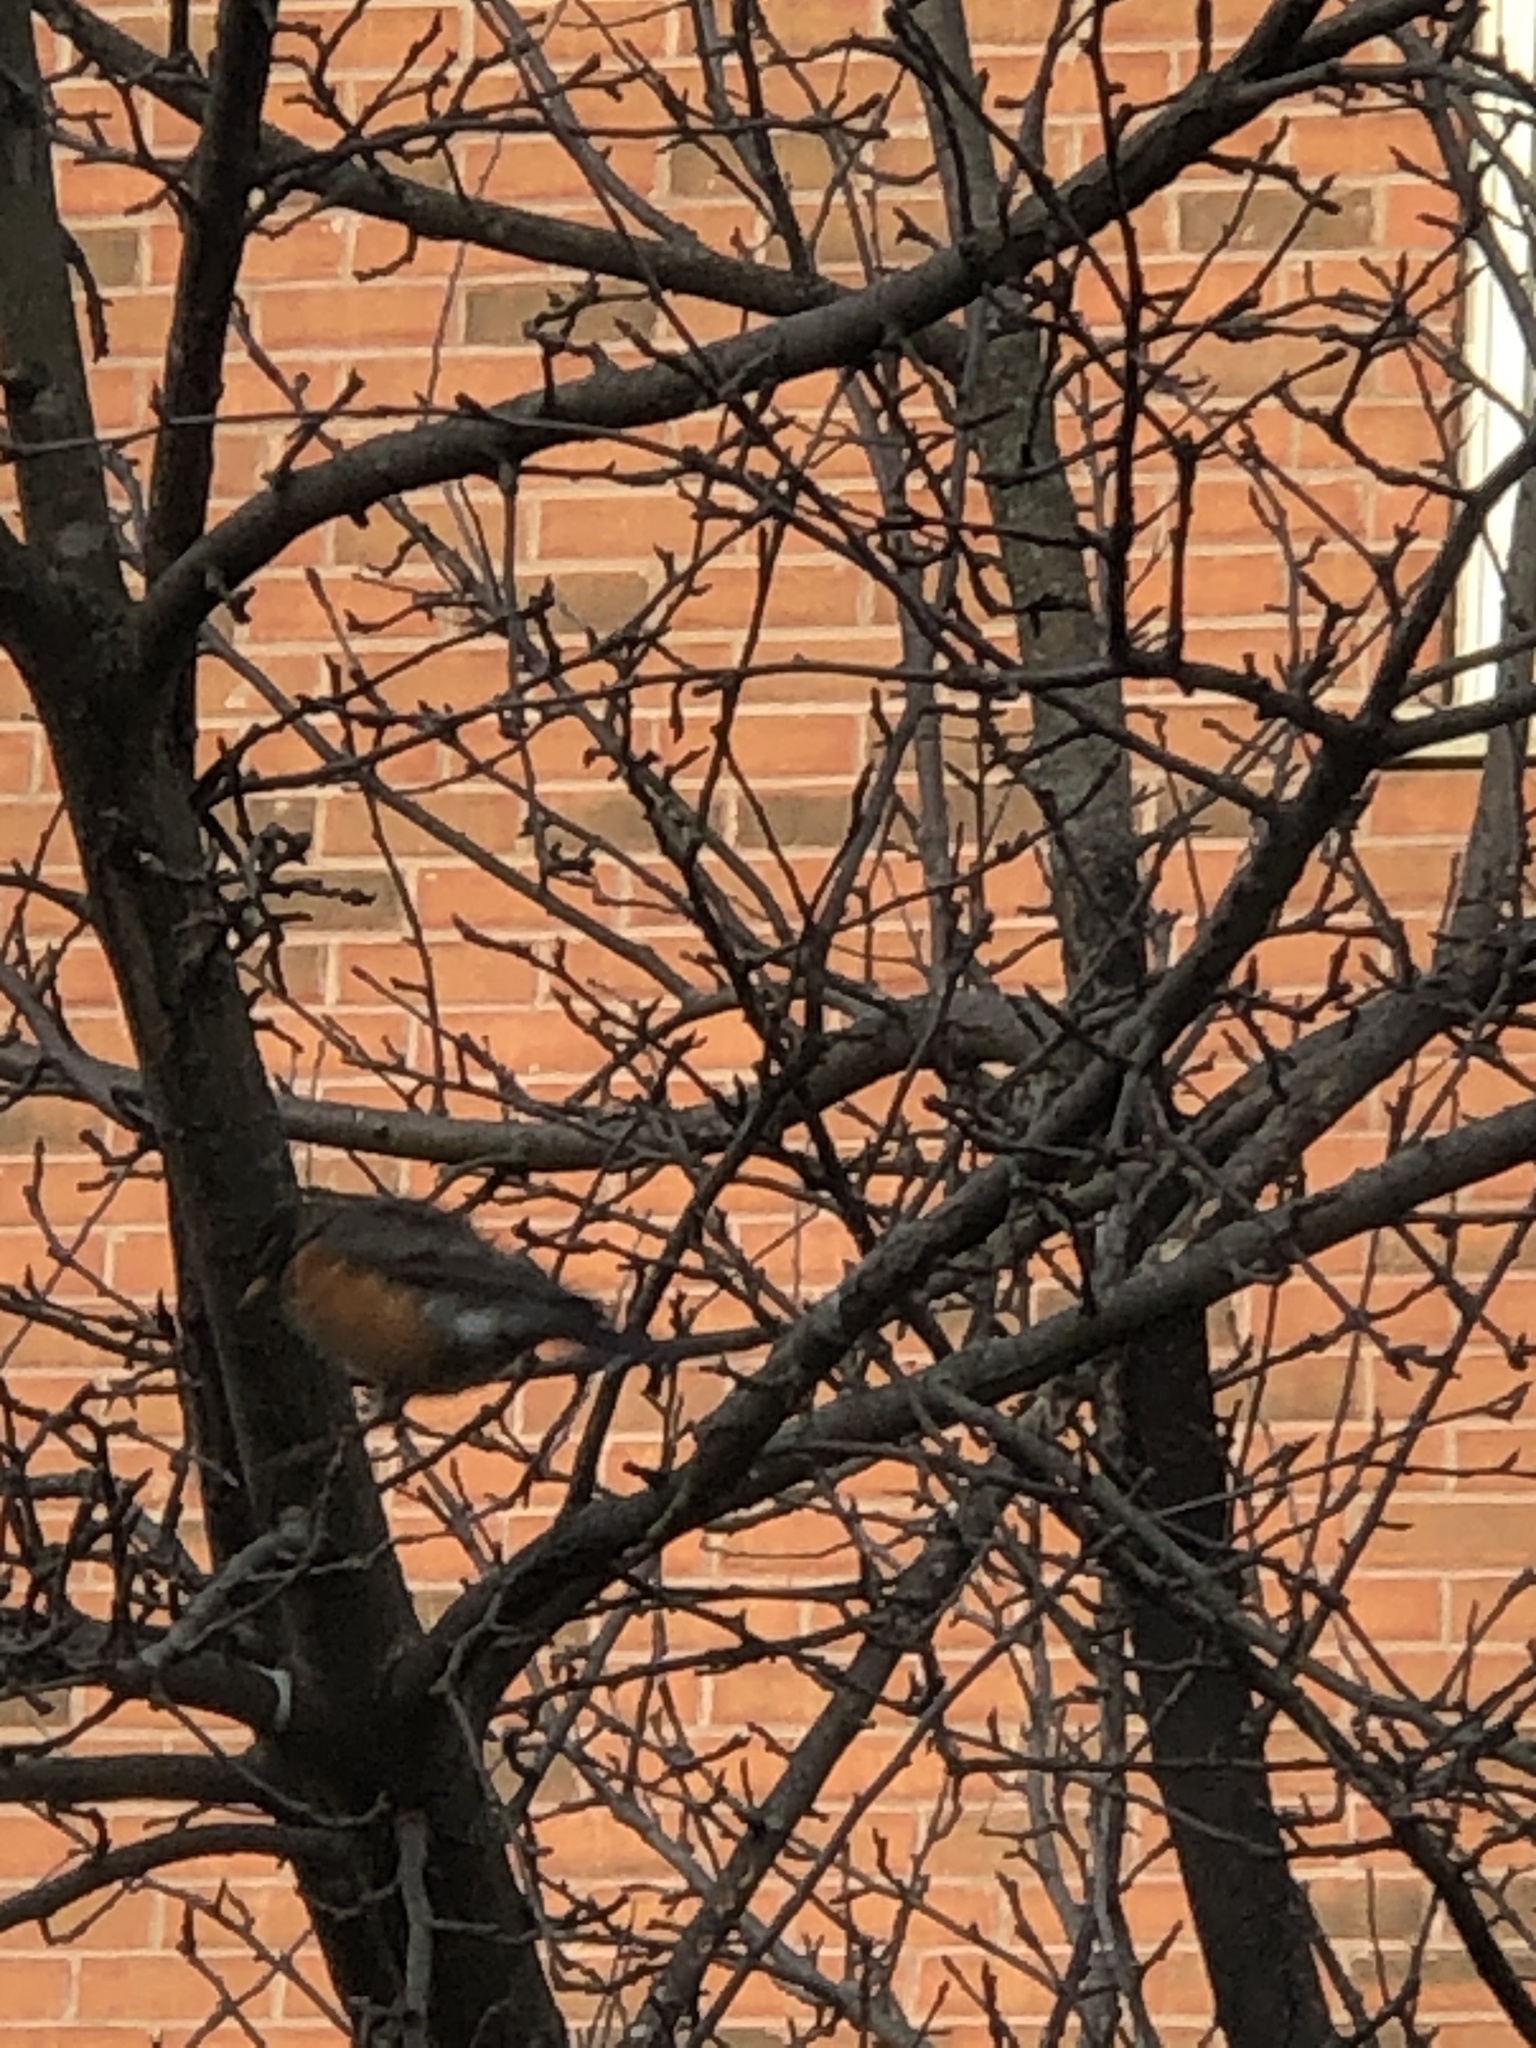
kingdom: Animalia
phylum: Chordata
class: Aves
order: Passeriformes
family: Turdidae
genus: Turdus
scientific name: Turdus migratorius
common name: American robin
